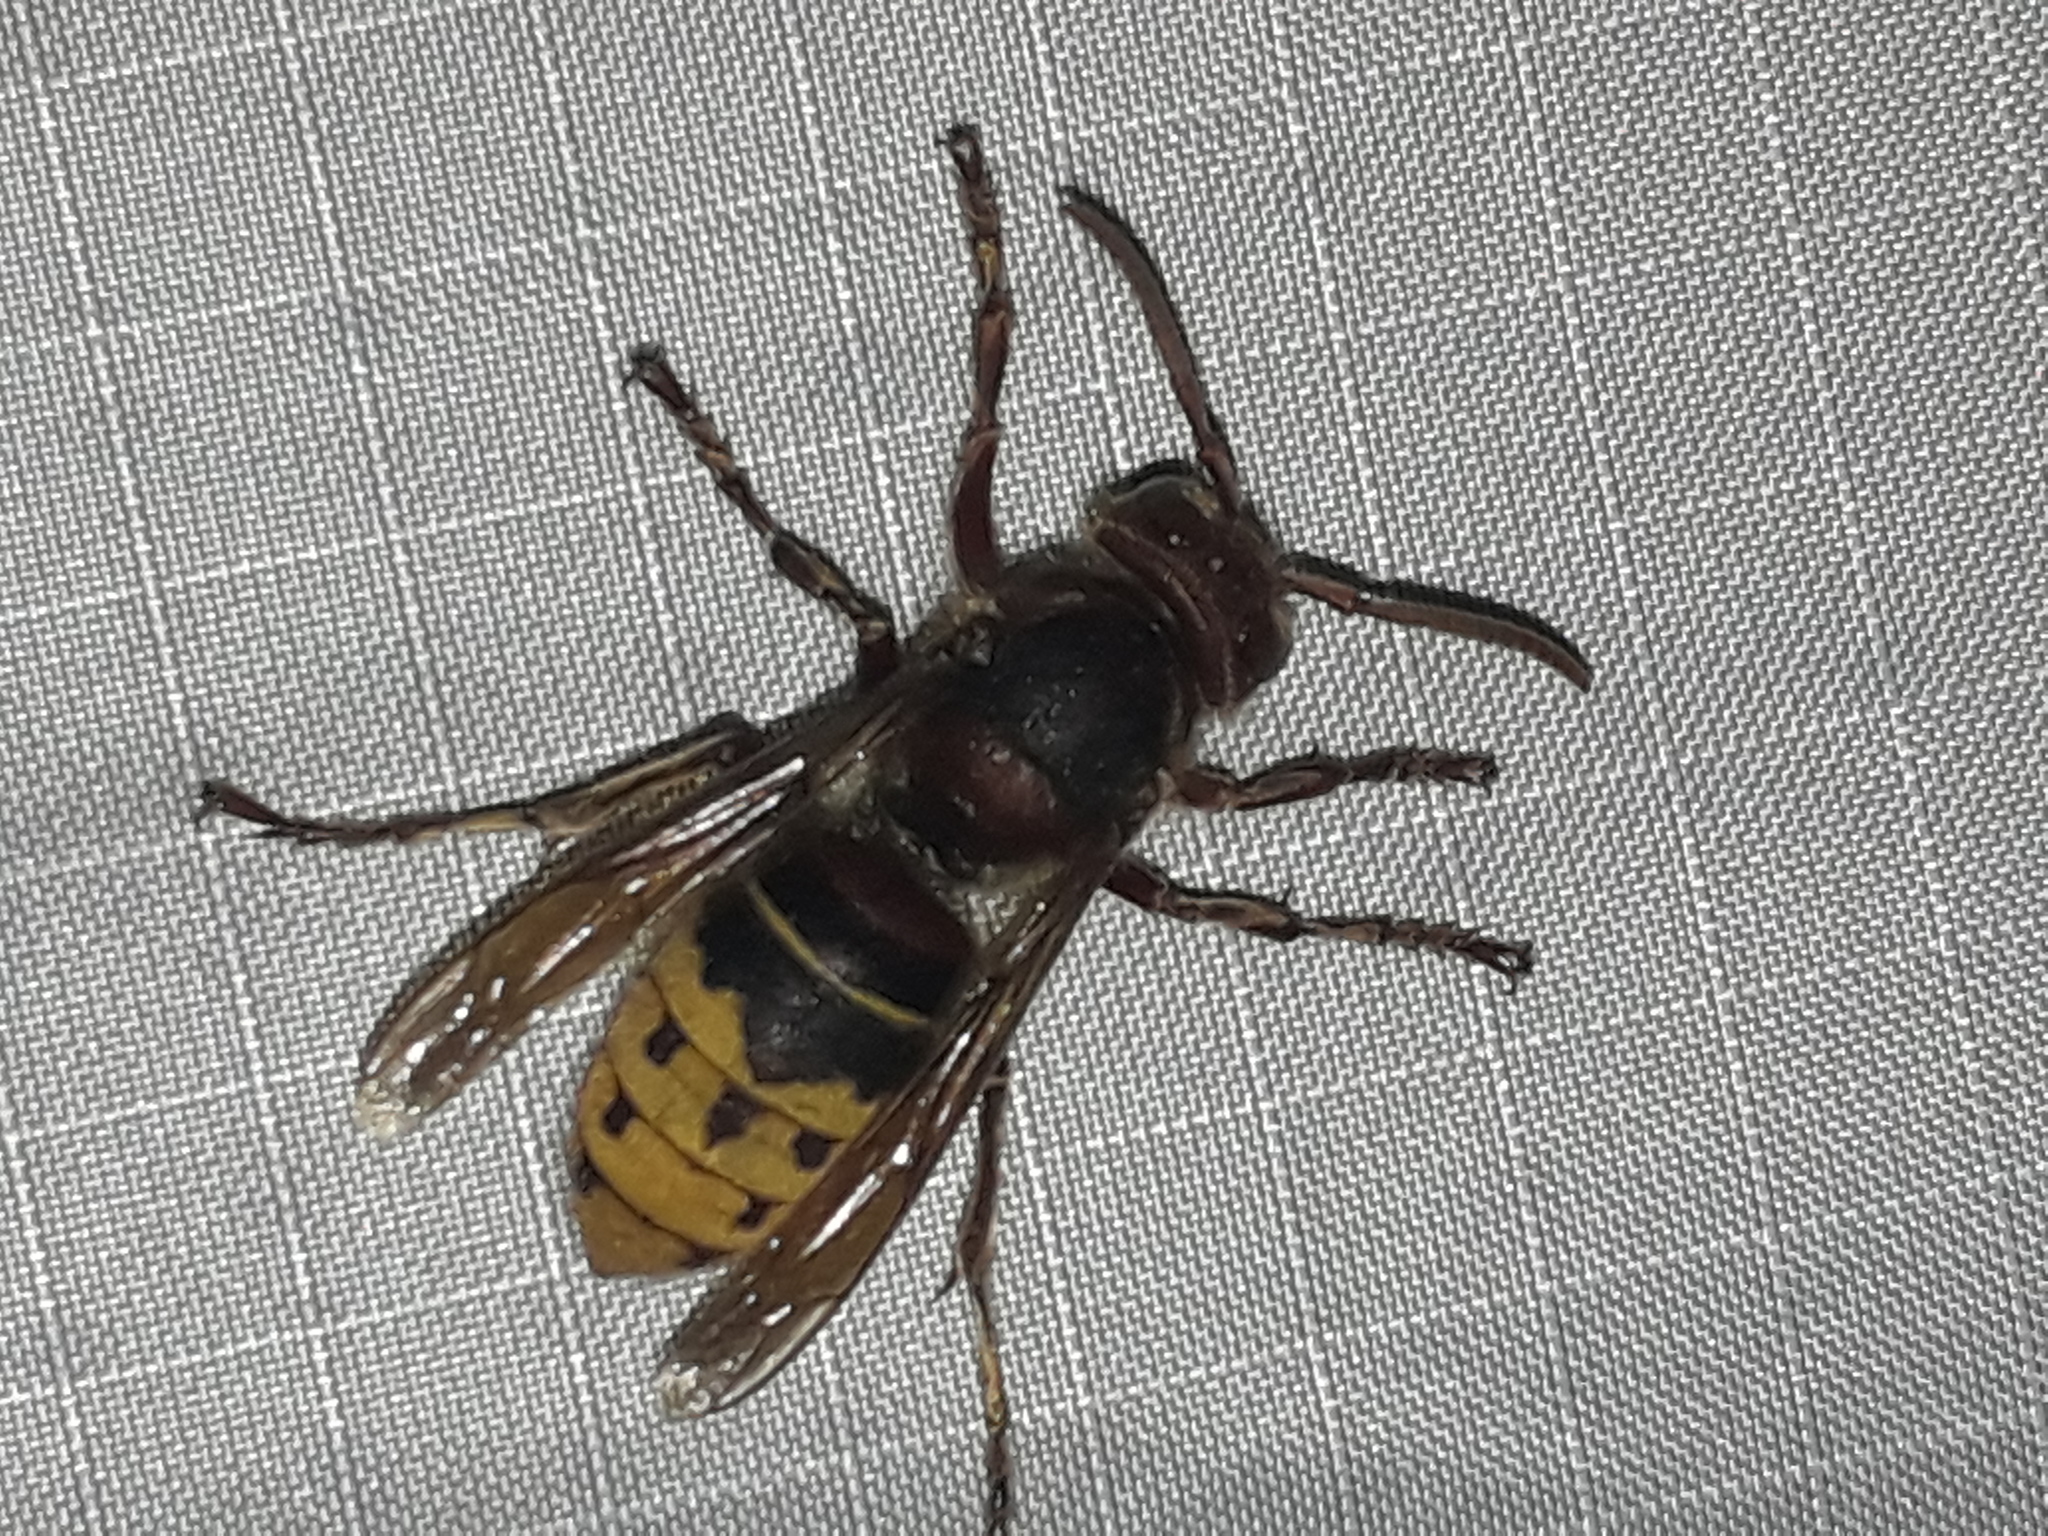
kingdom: Animalia
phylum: Arthropoda
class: Insecta
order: Hymenoptera
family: Vespidae
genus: Vespa
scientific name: Vespa crabro
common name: Hornet
